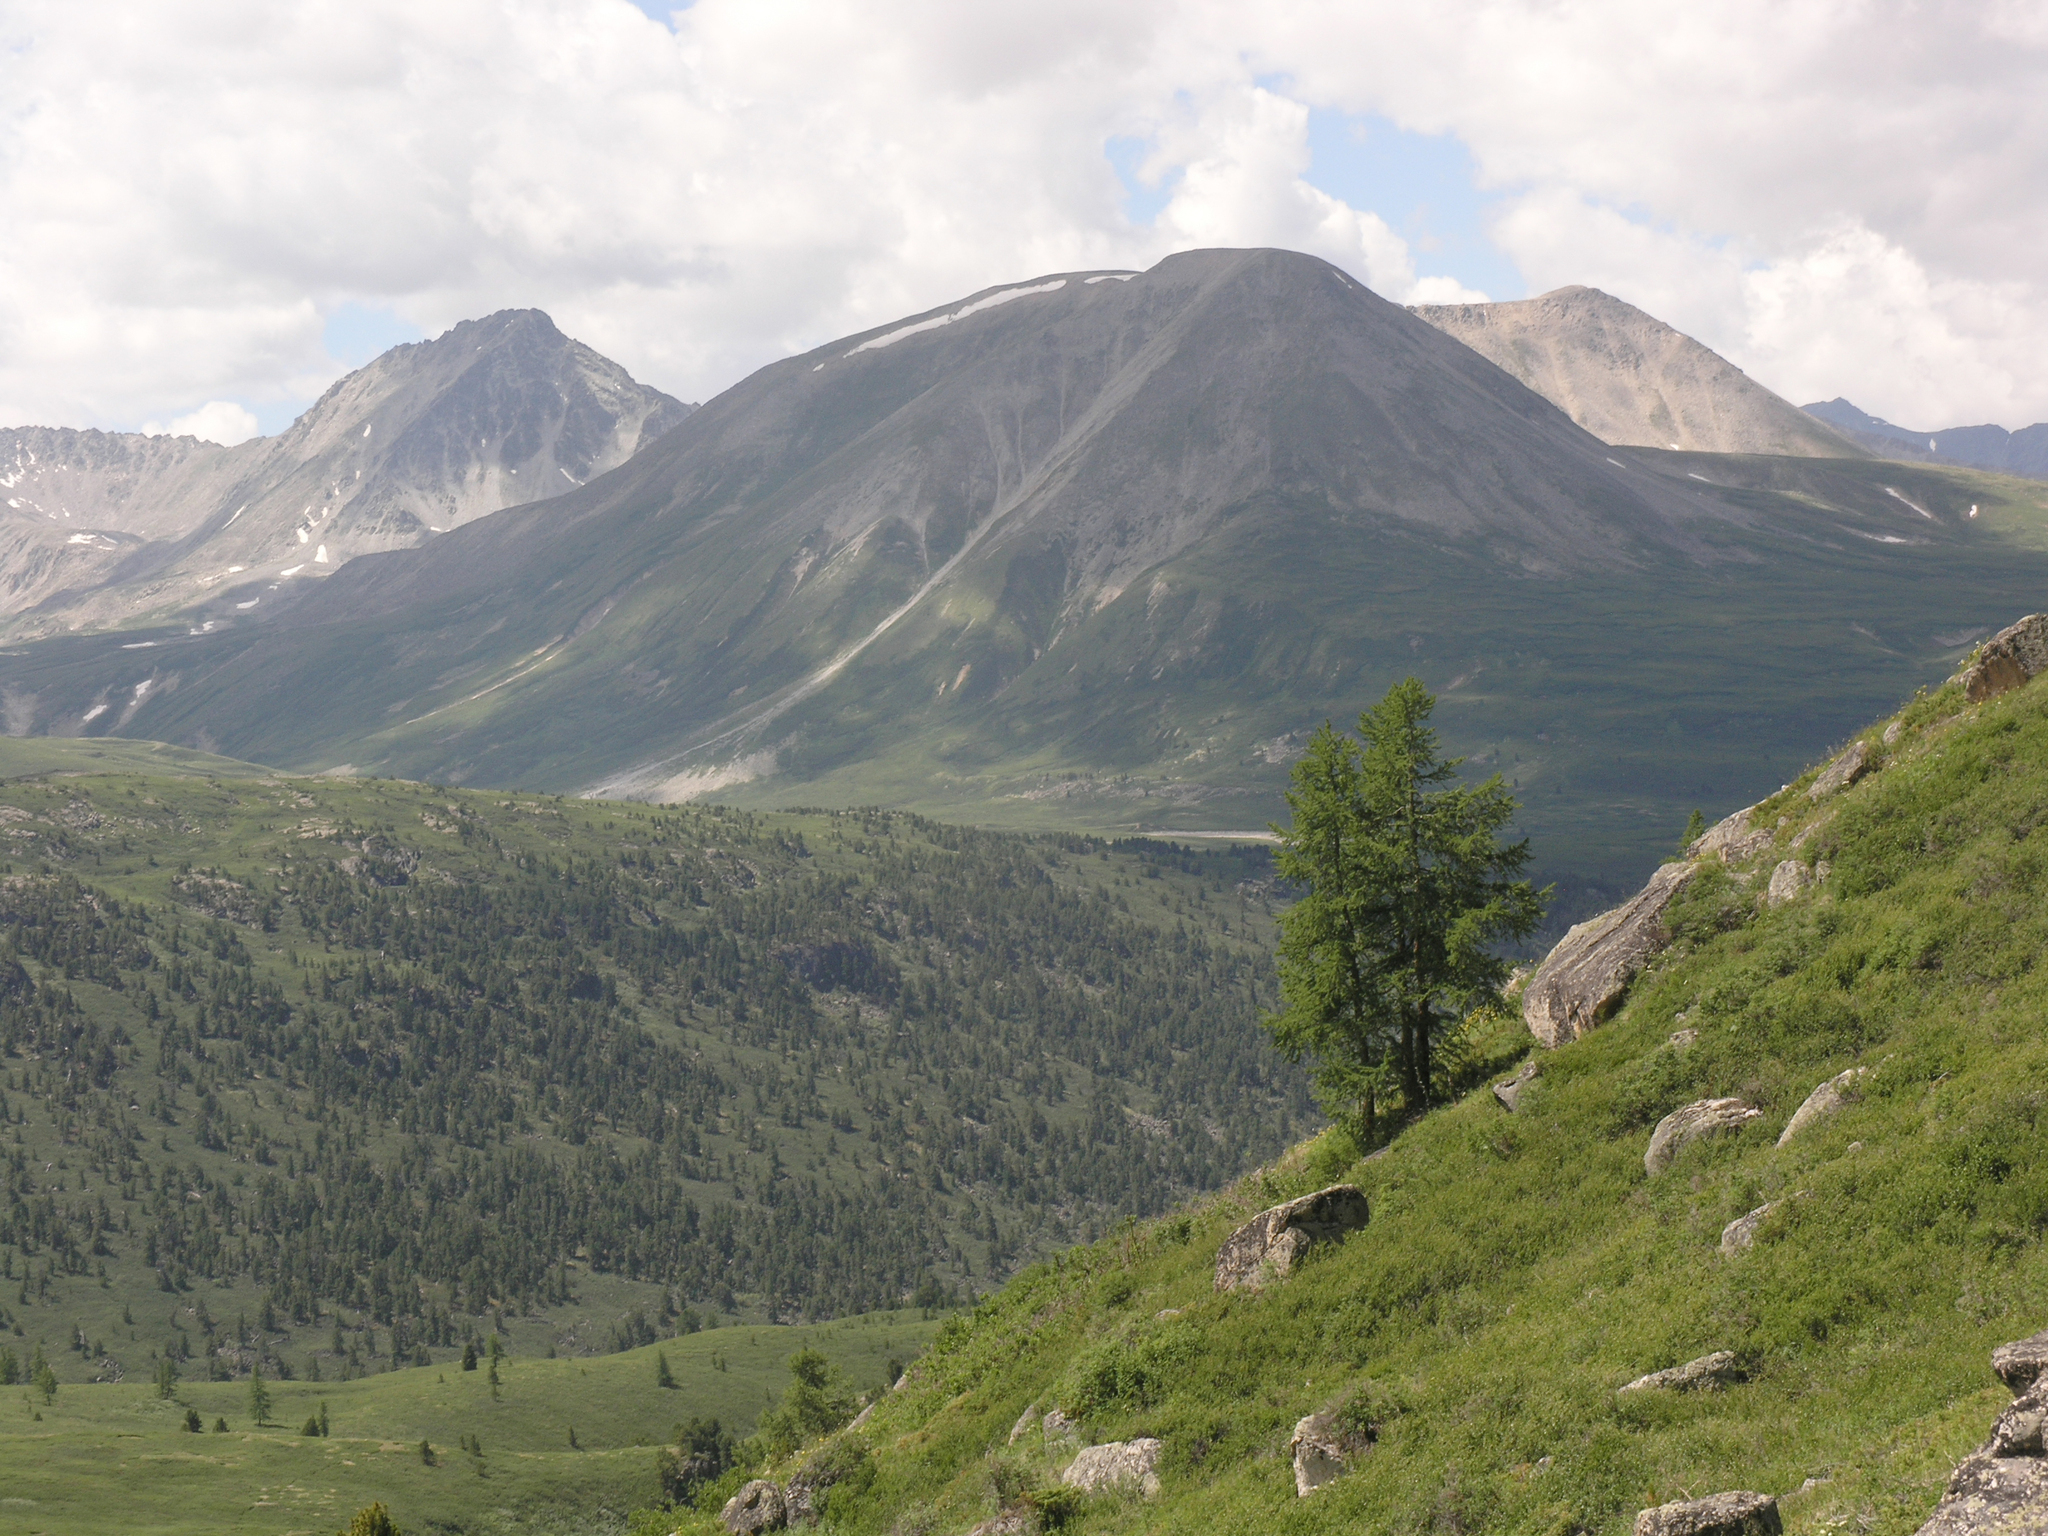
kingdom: Plantae
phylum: Tracheophyta
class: Pinopsida
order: Pinales
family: Pinaceae
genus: Larix
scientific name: Larix sibirica
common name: Siberian larch
